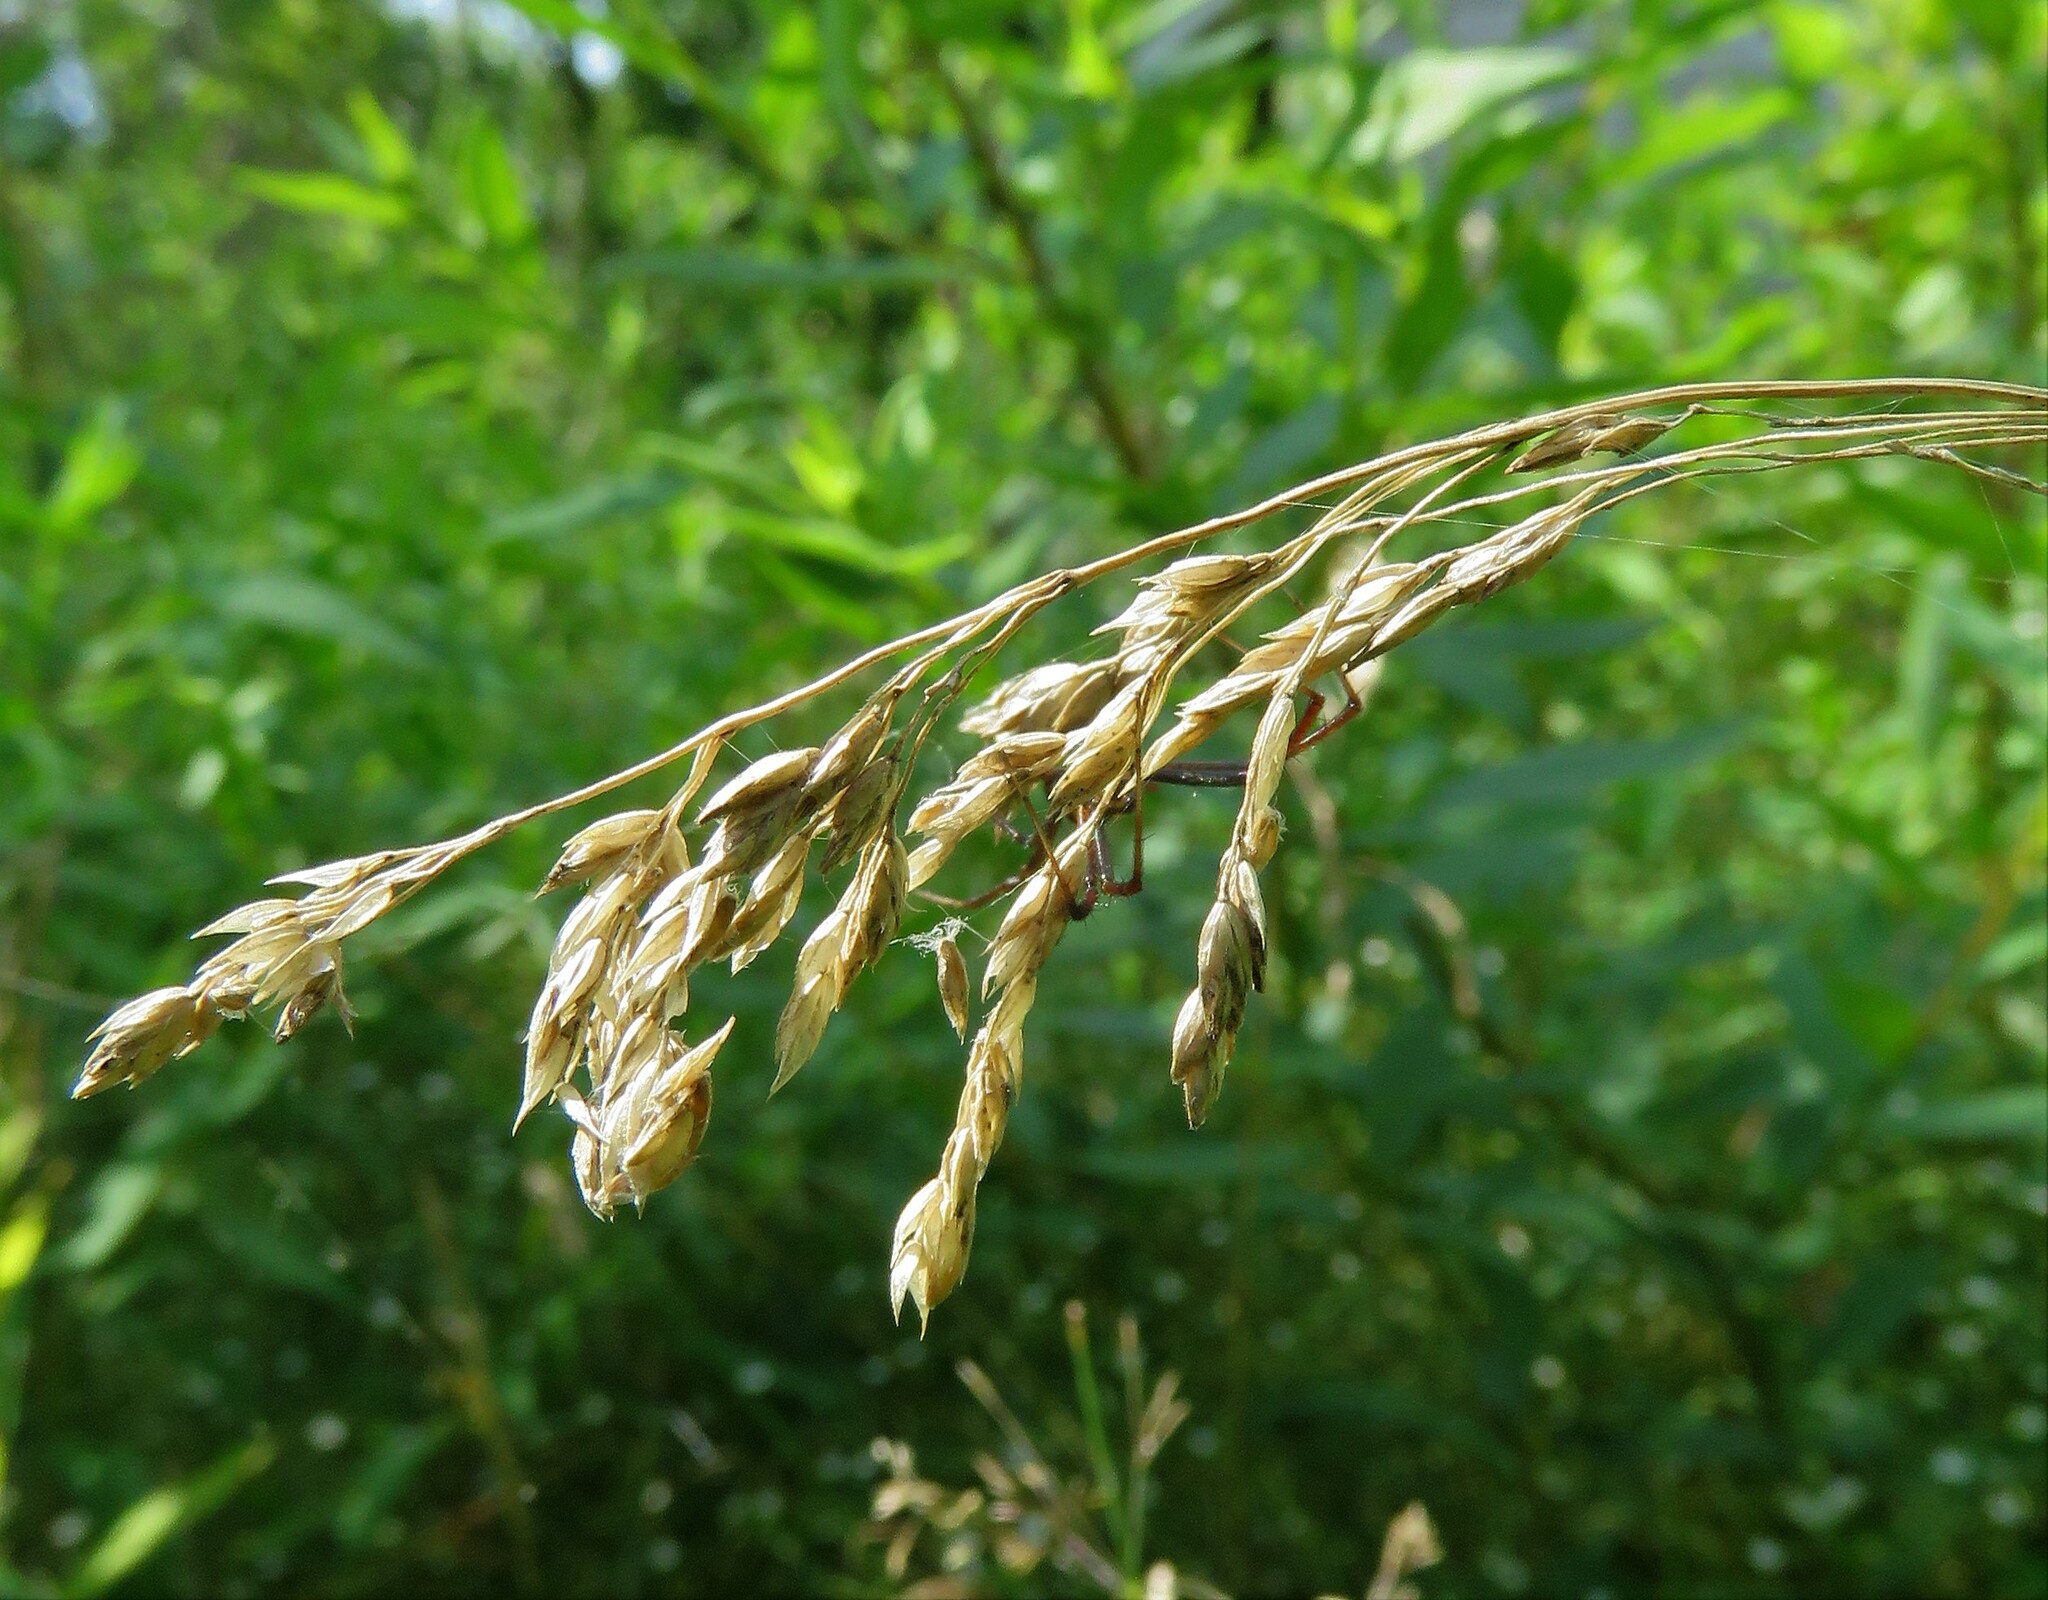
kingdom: Animalia
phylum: Arthropoda
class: Arachnida
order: Araneae
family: Araneidae
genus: Argiope
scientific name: Argiope aurantia
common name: Orb weavers
